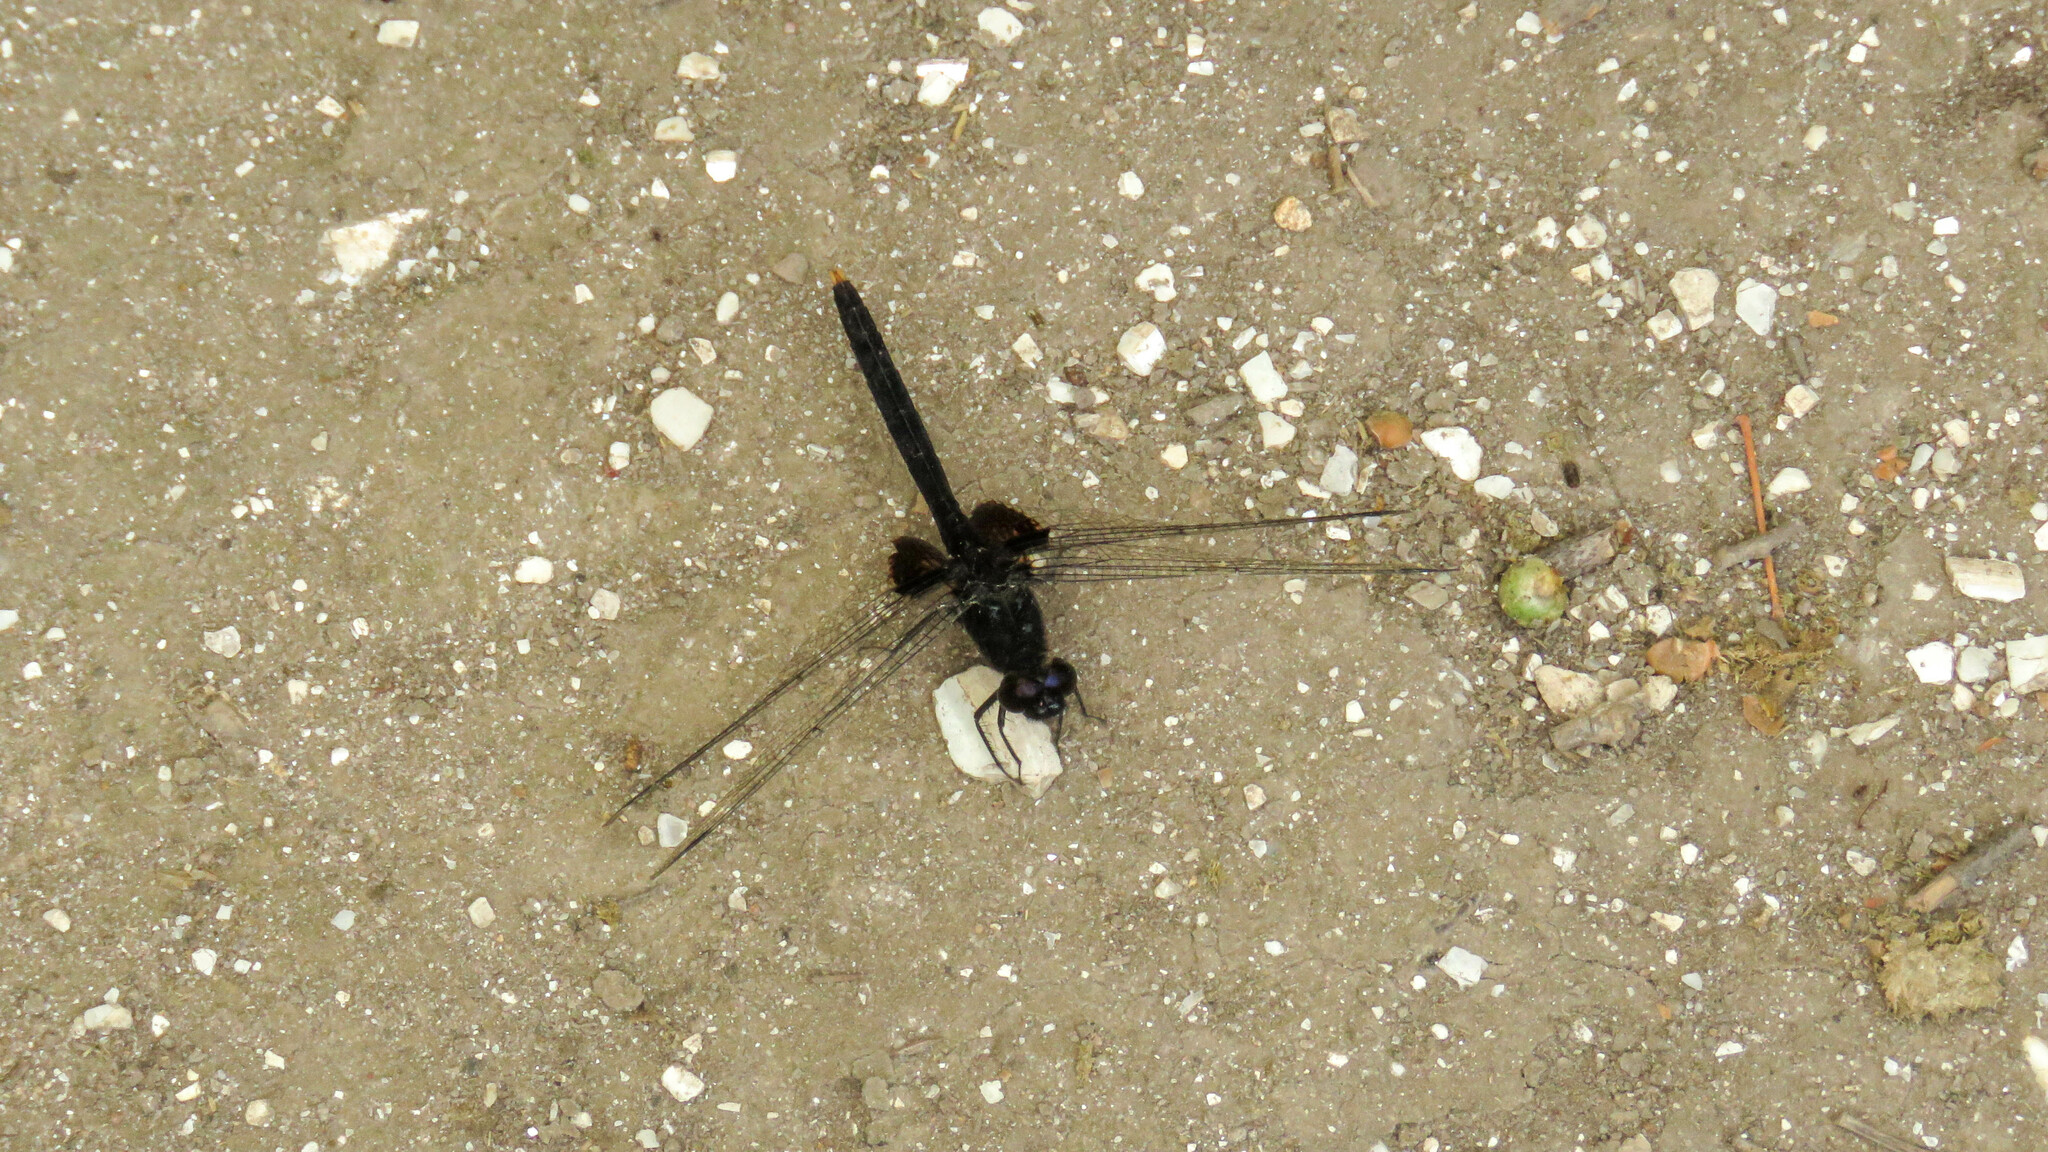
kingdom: Animalia
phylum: Arthropoda
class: Insecta
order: Odonata
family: Libellulidae
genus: Erythemis
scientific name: Erythemis attala
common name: Black pondhawk
